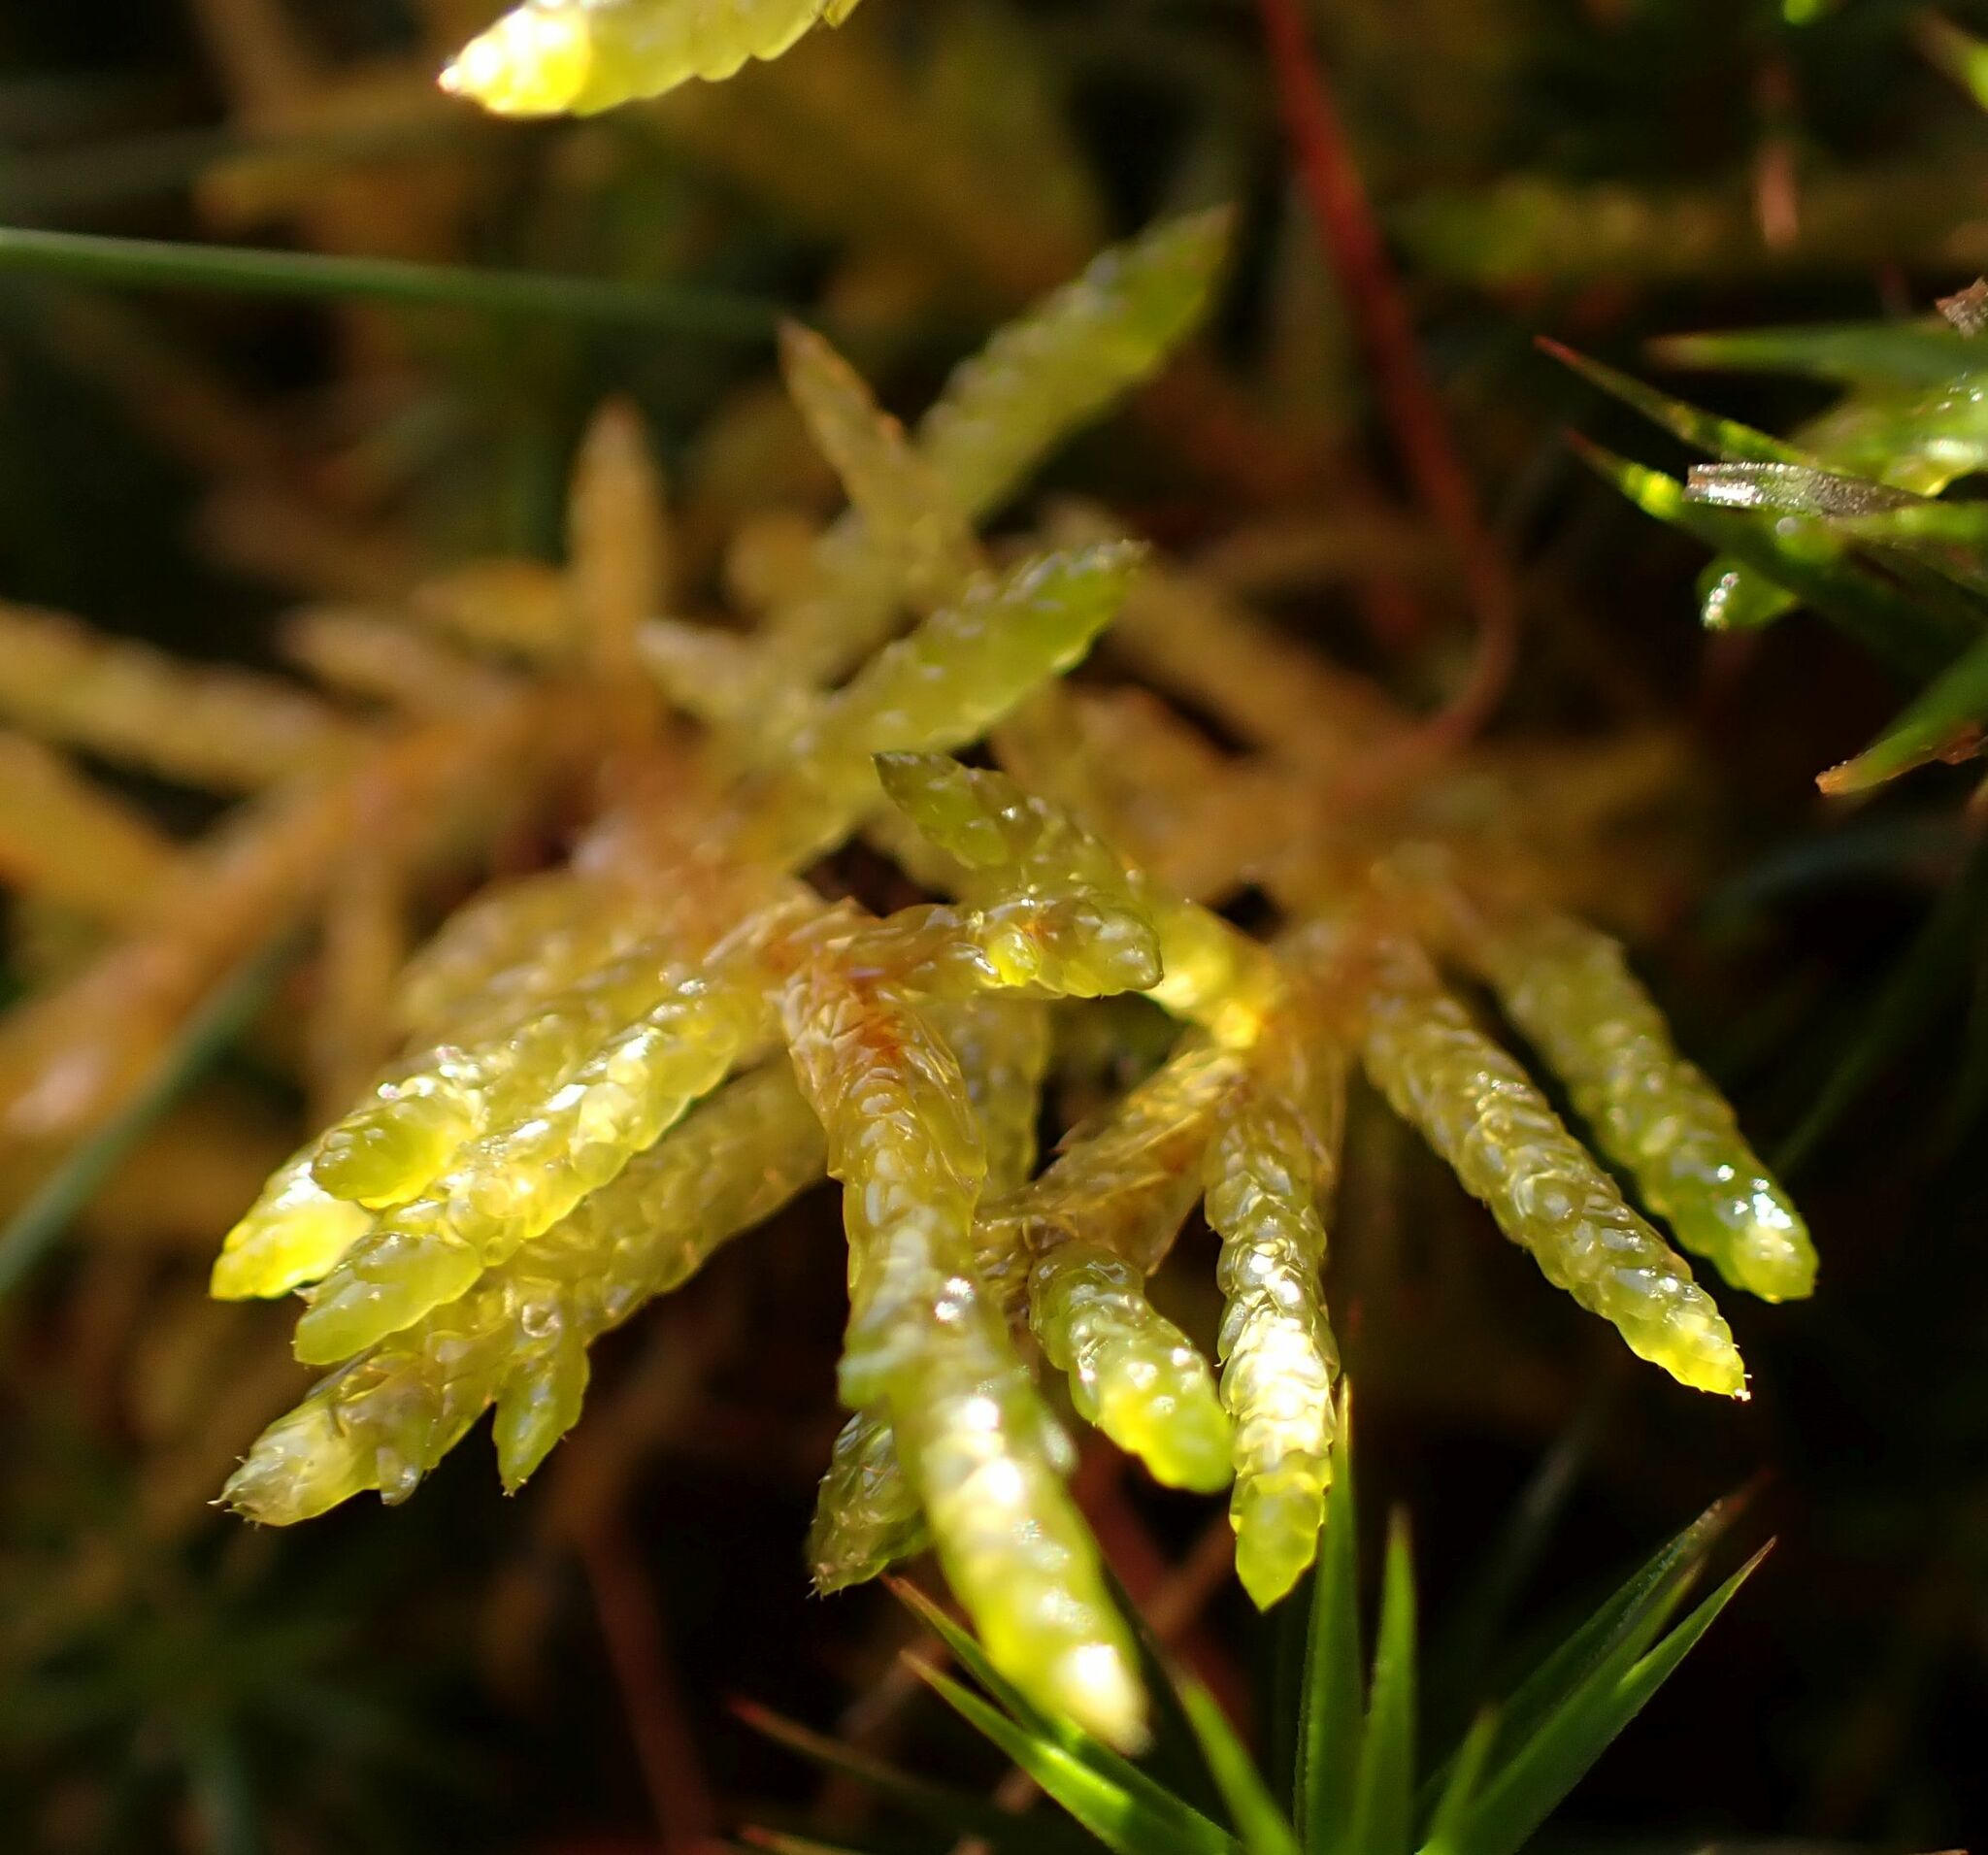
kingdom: Plantae
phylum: Bryophyta
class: Bryopsida
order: Hypnales
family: Brachytheciaceae
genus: Pseudoscleropodium
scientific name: Pseudoscleropodium purum
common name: Neat feather-moss
